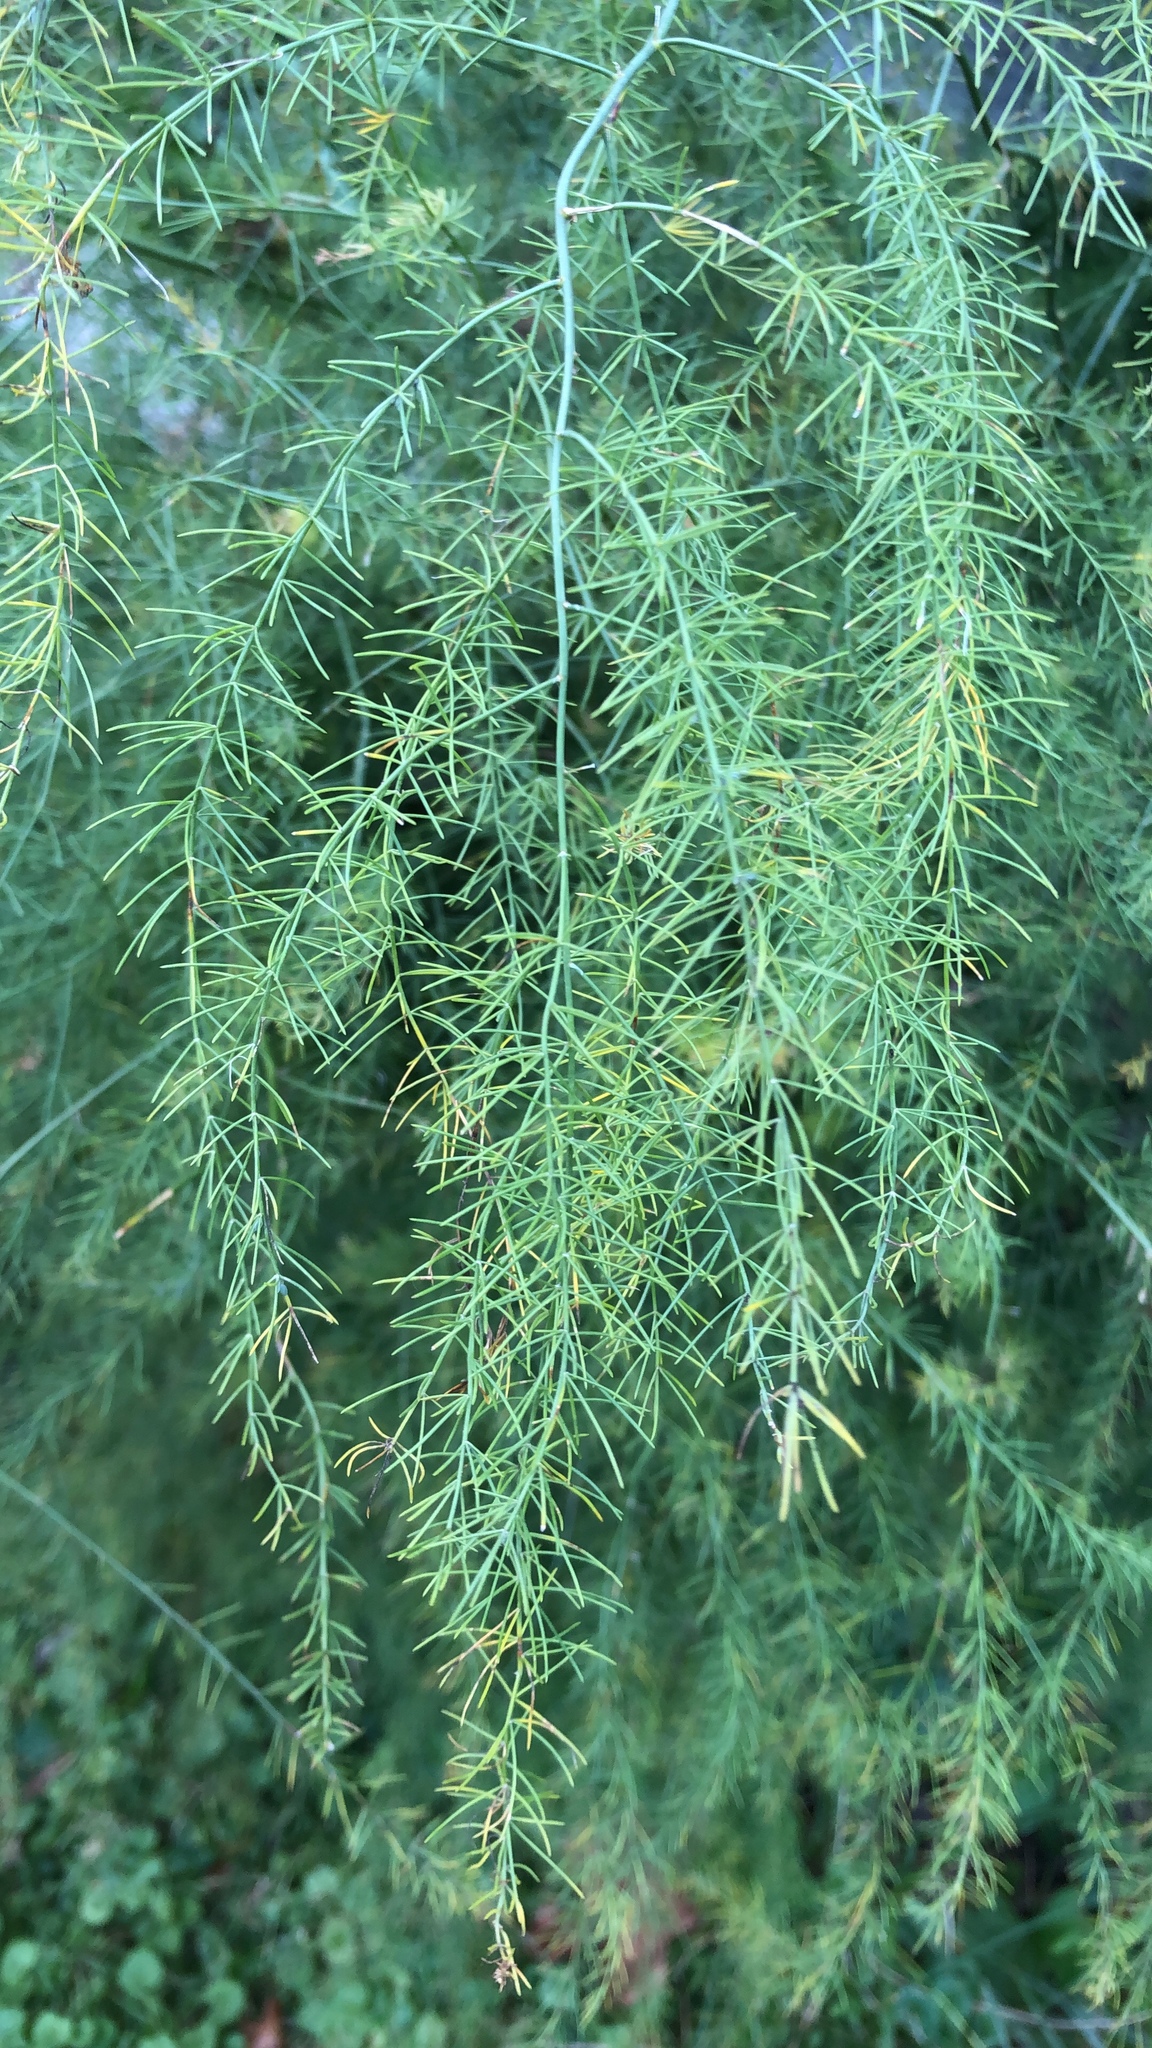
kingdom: Plantae
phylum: Tracheophyta
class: Liliopsida
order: Asparagales
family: Asparagaceae
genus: Asparagus
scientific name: Asparagus officinalis
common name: Garden asparagus
